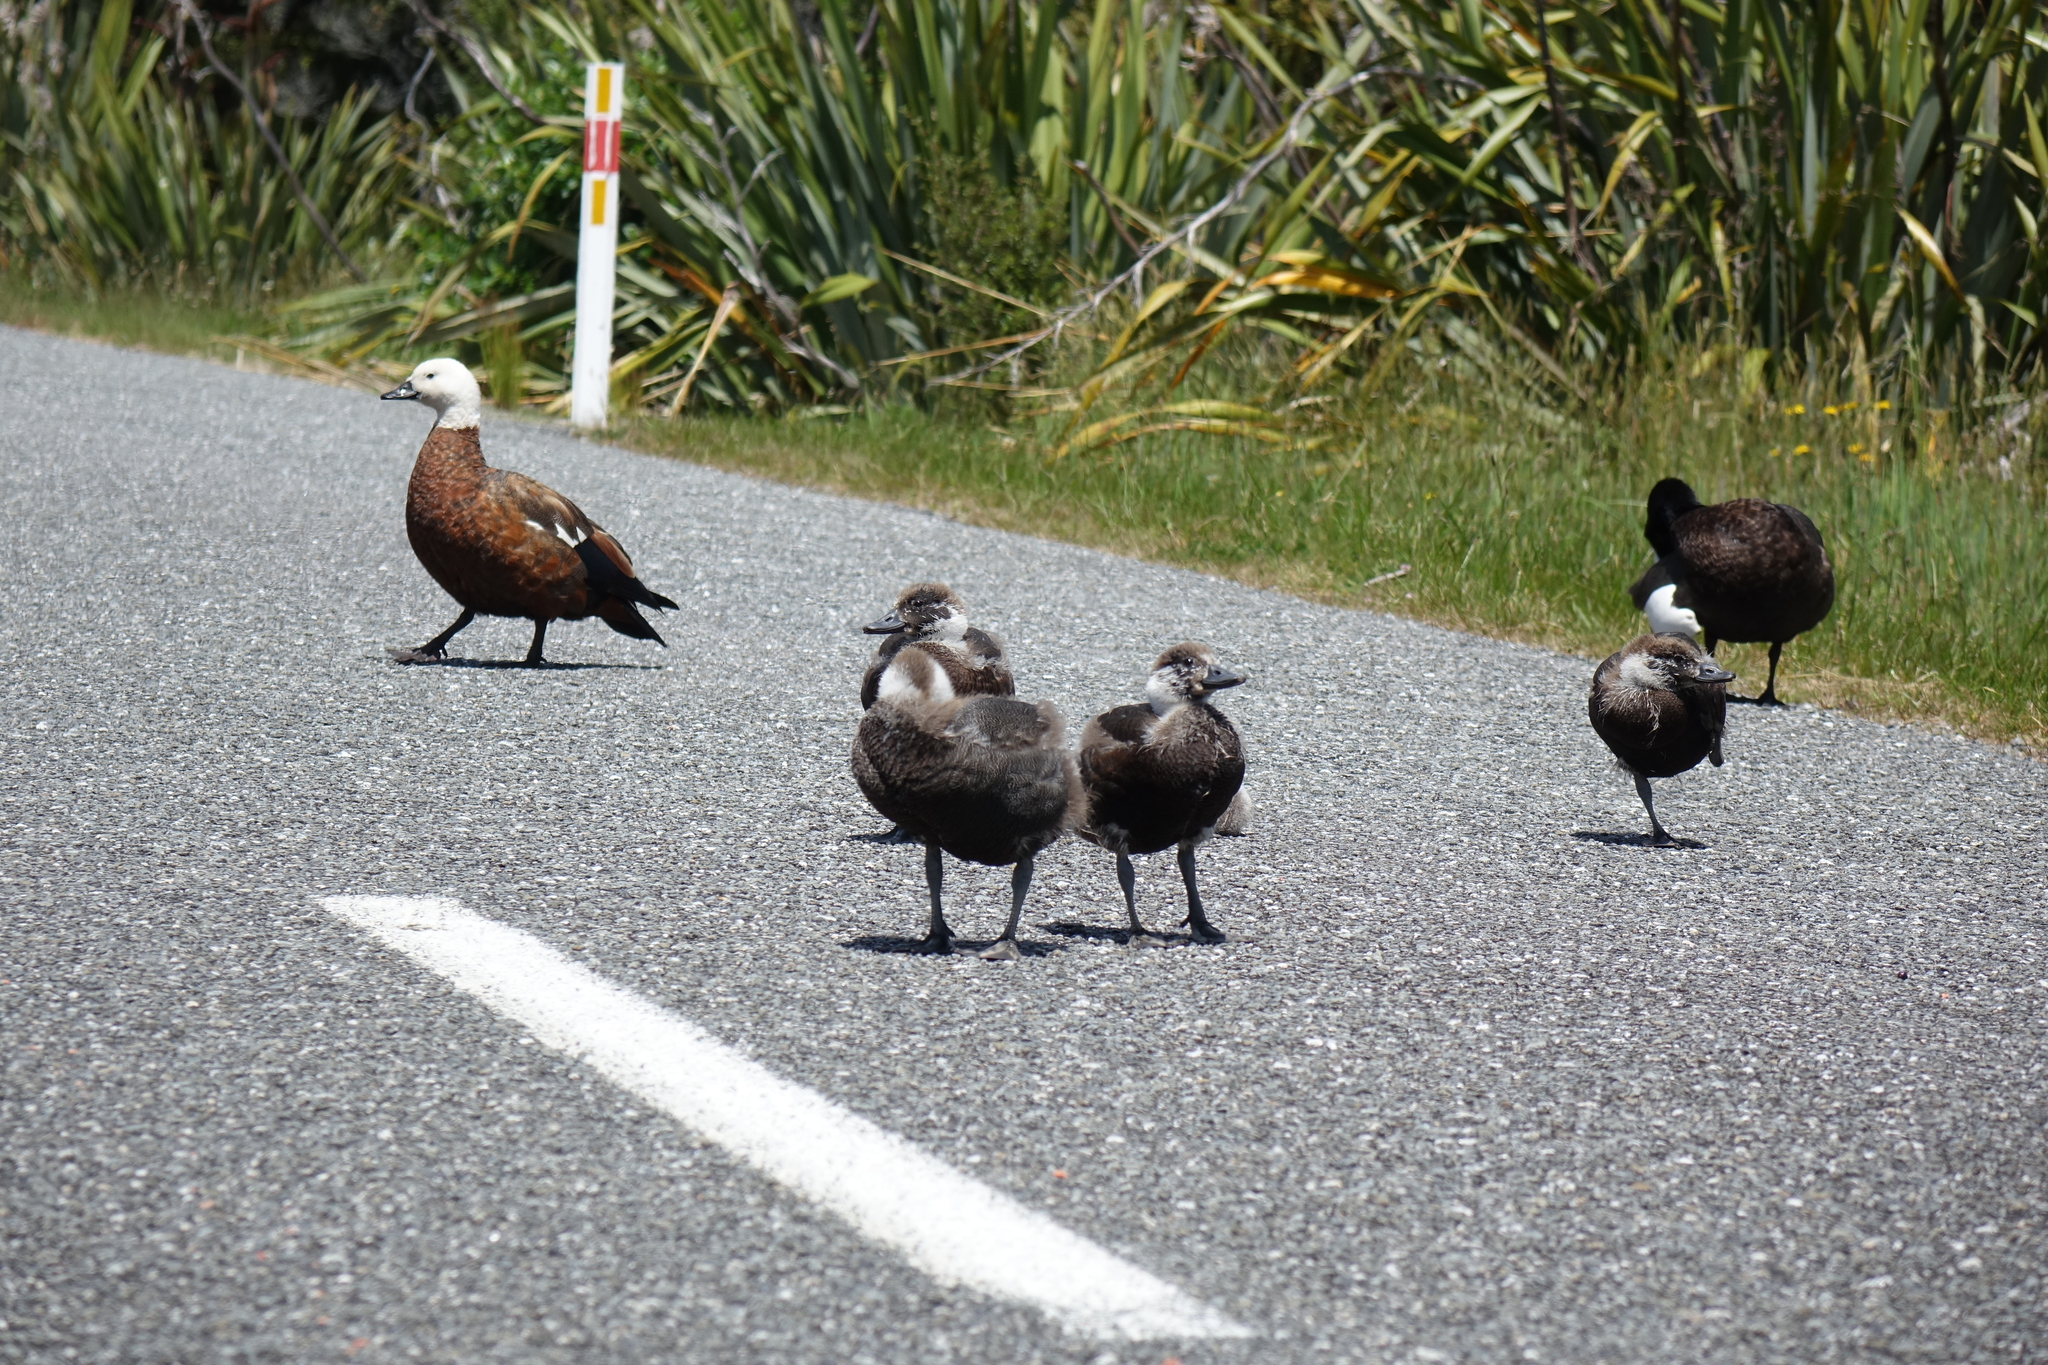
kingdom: Animalia
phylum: Chordata
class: Aves
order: Anseriformes
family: Anatidae
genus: Tadorna
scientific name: Tadorna variegata
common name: Paradise shelduck
